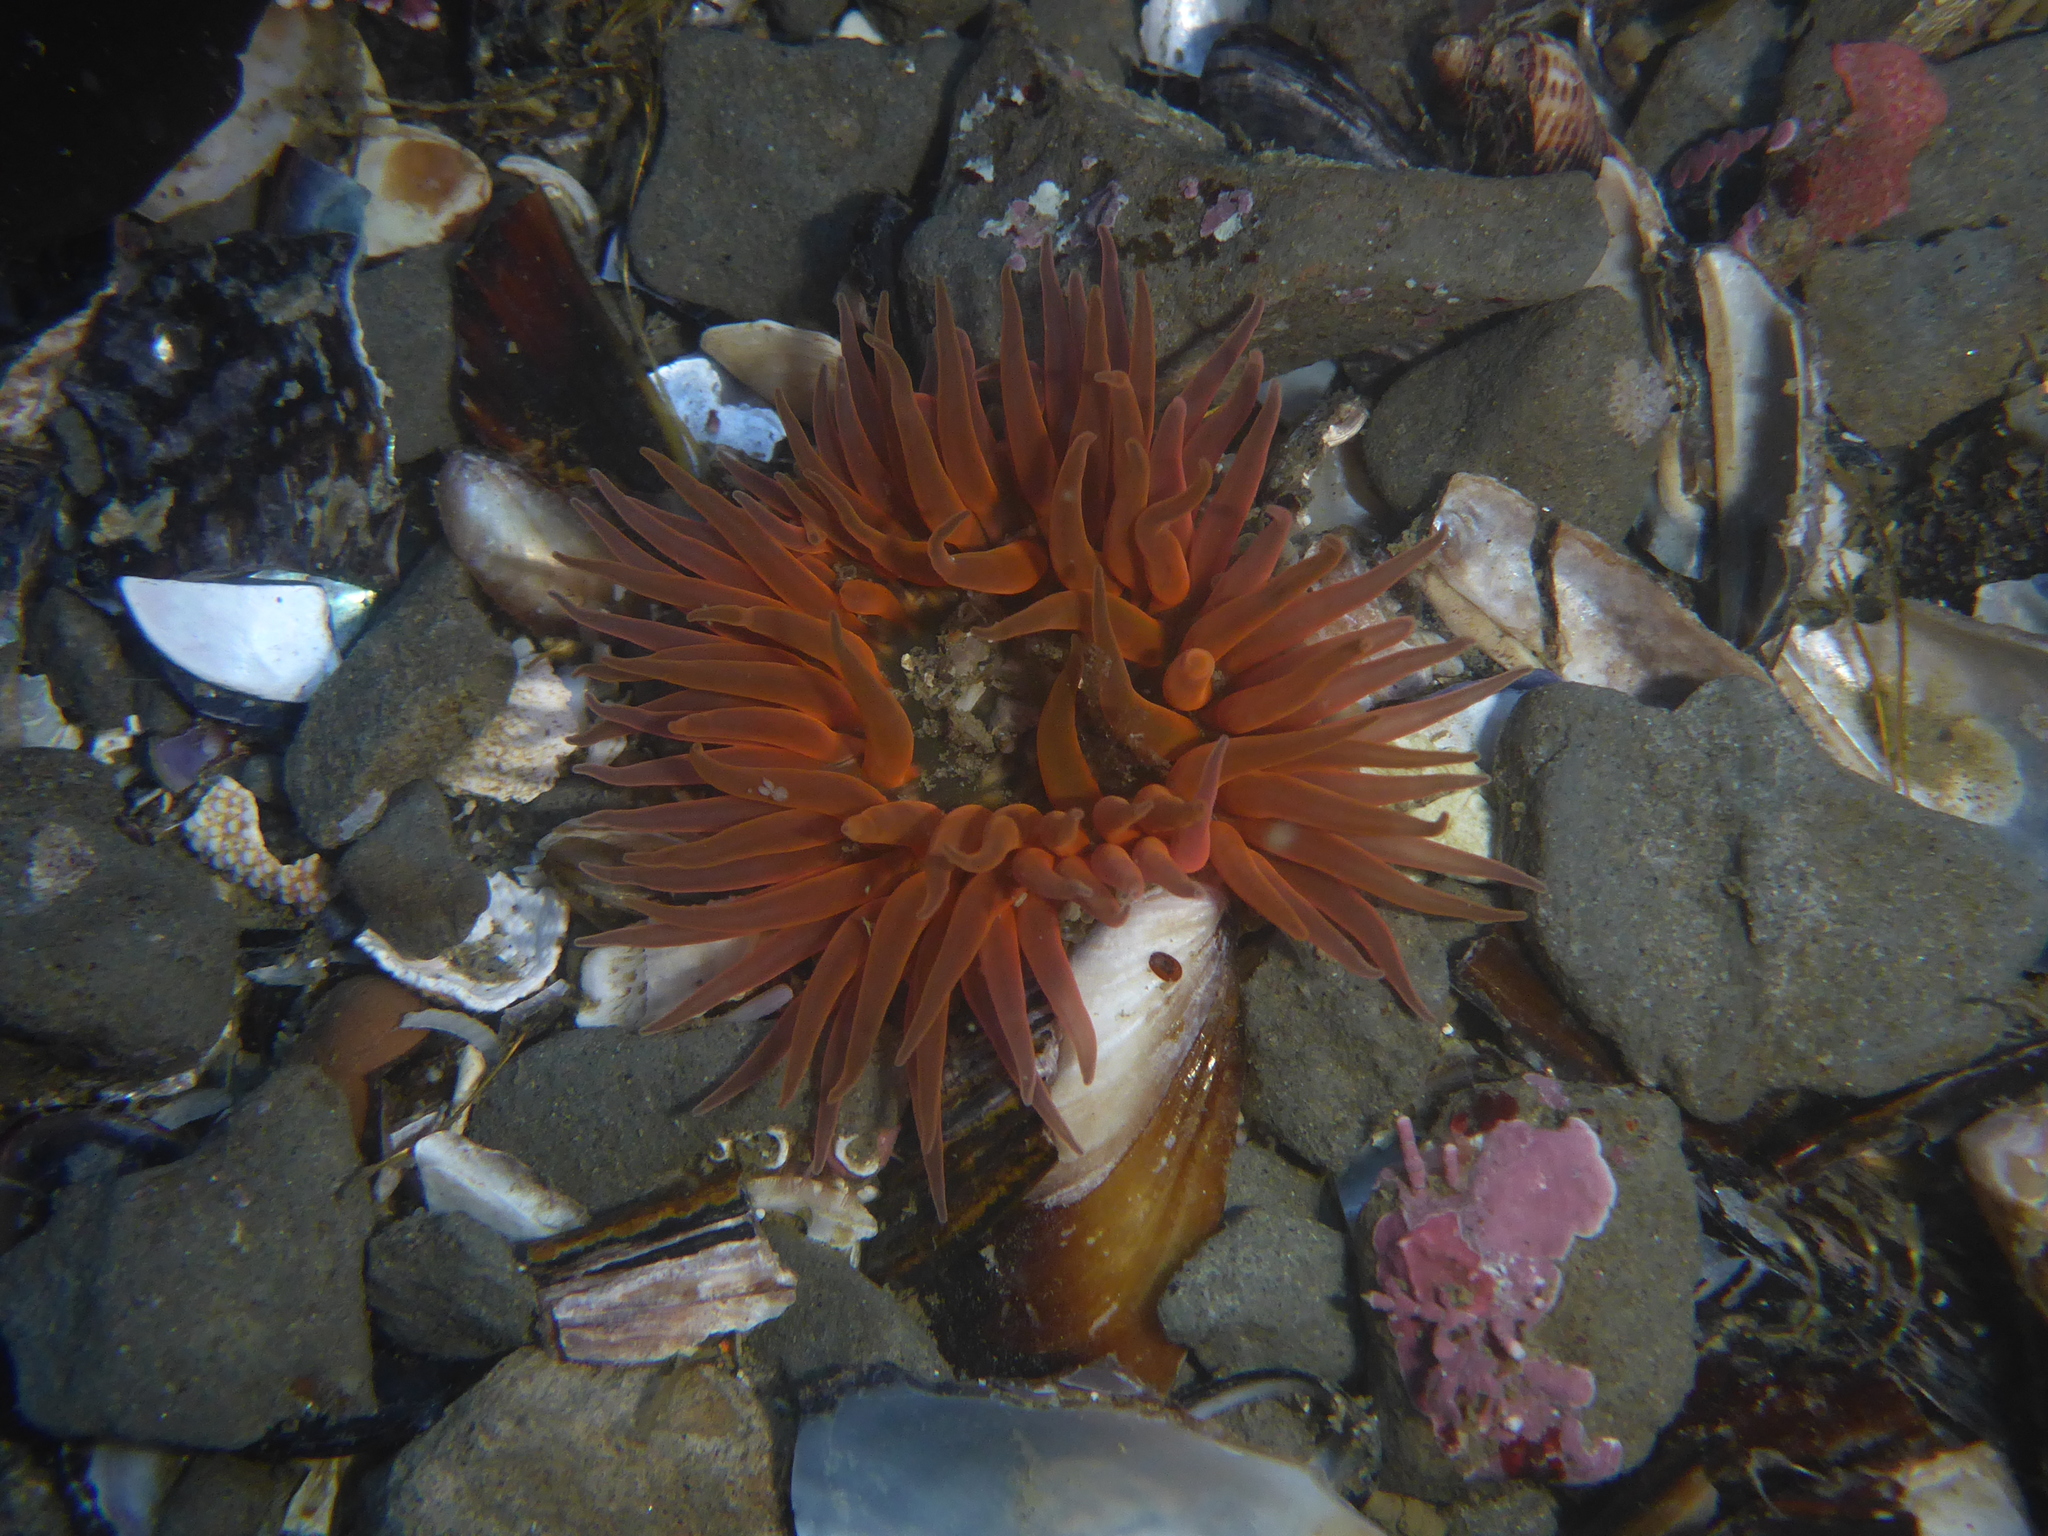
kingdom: Animalia
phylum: Cnidaria
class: Anthozoa
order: Actiniaria
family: Actiniidae
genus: Anthopleura
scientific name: Anthopleura artemisia
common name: Buried sea anemone
